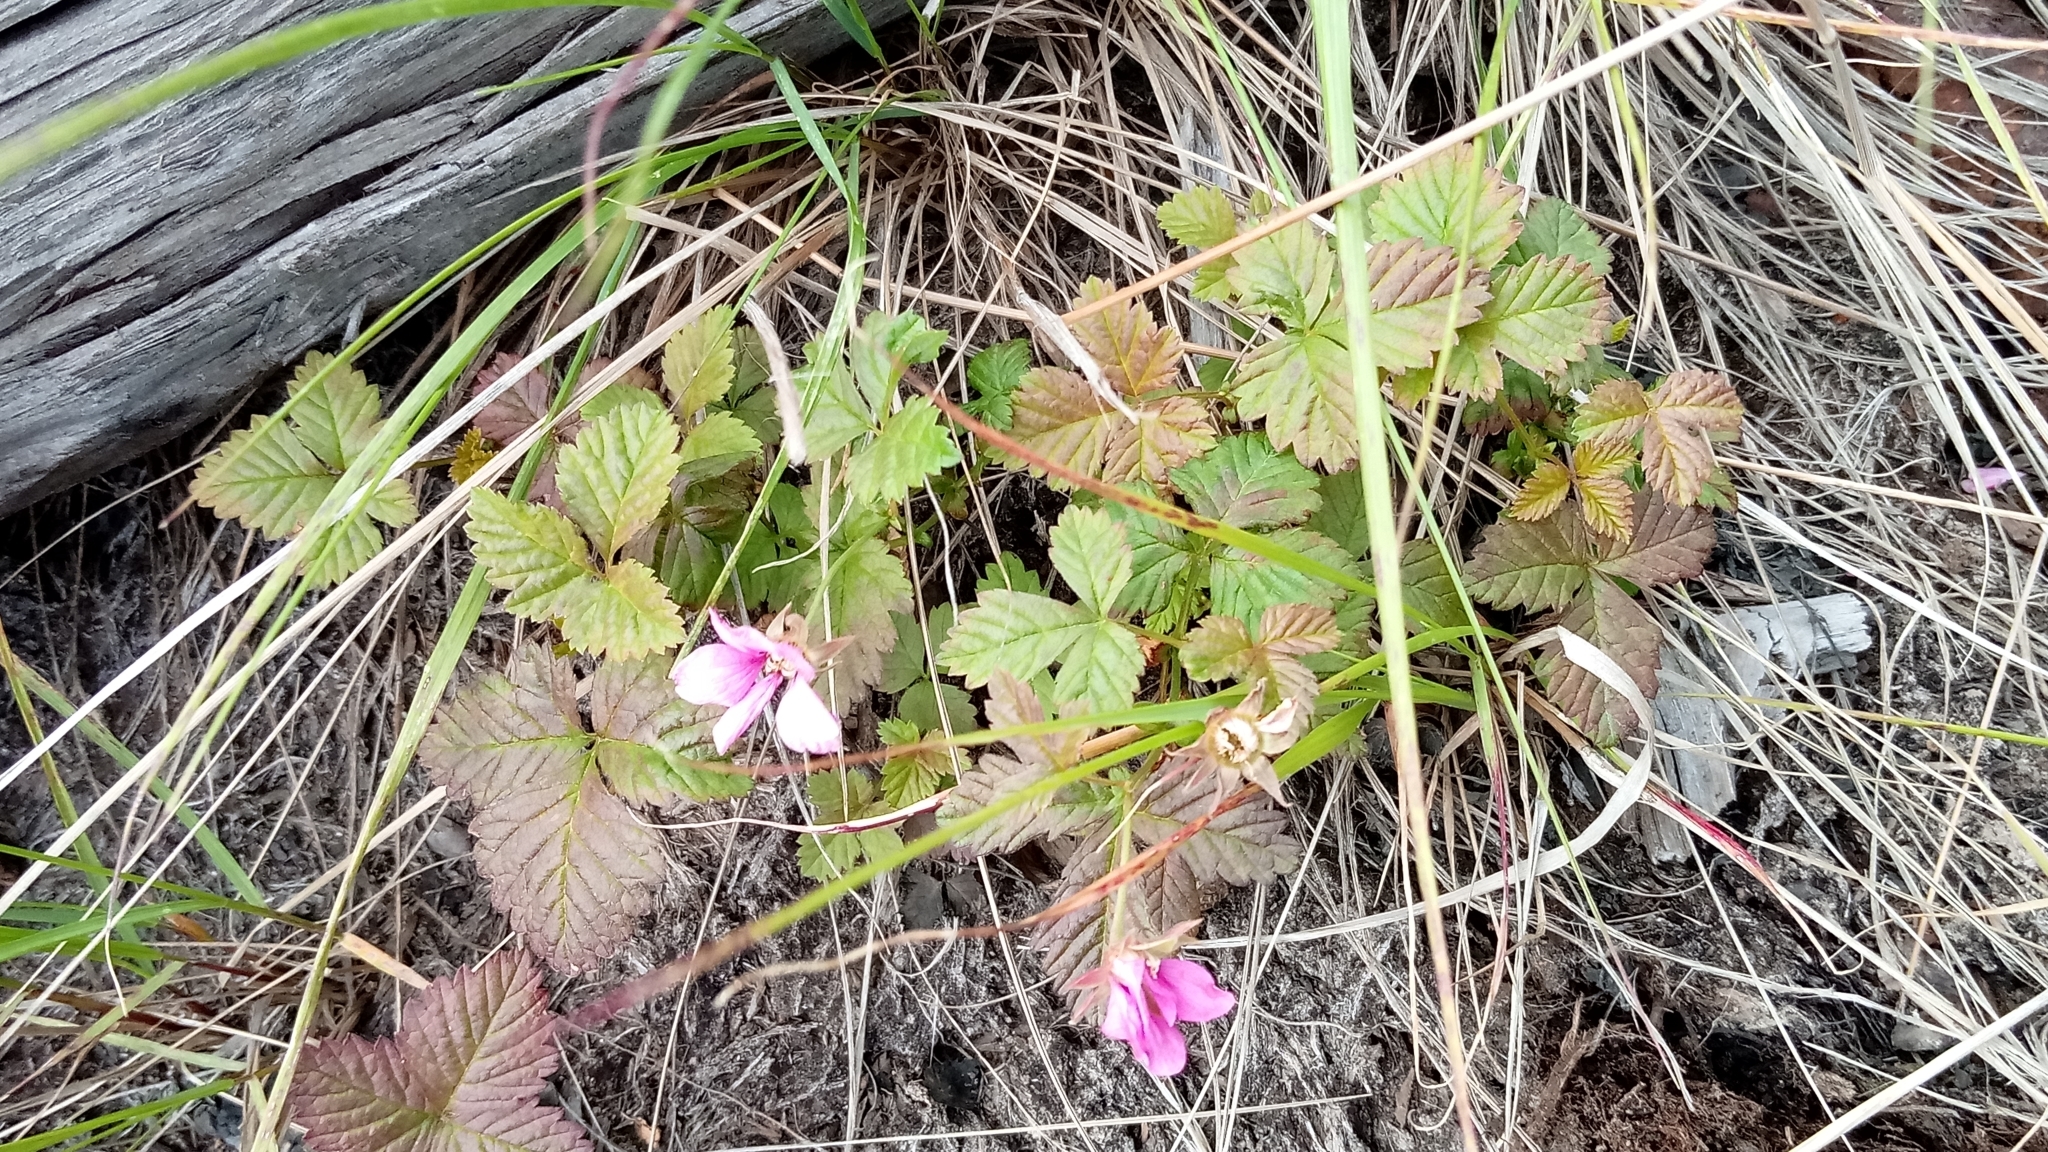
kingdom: Plantae
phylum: Tracheophyta
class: Magnoliopsida
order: Rosales
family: Rosaceae
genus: Rubus
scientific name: Rubus arcticus
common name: Arctic bramble
